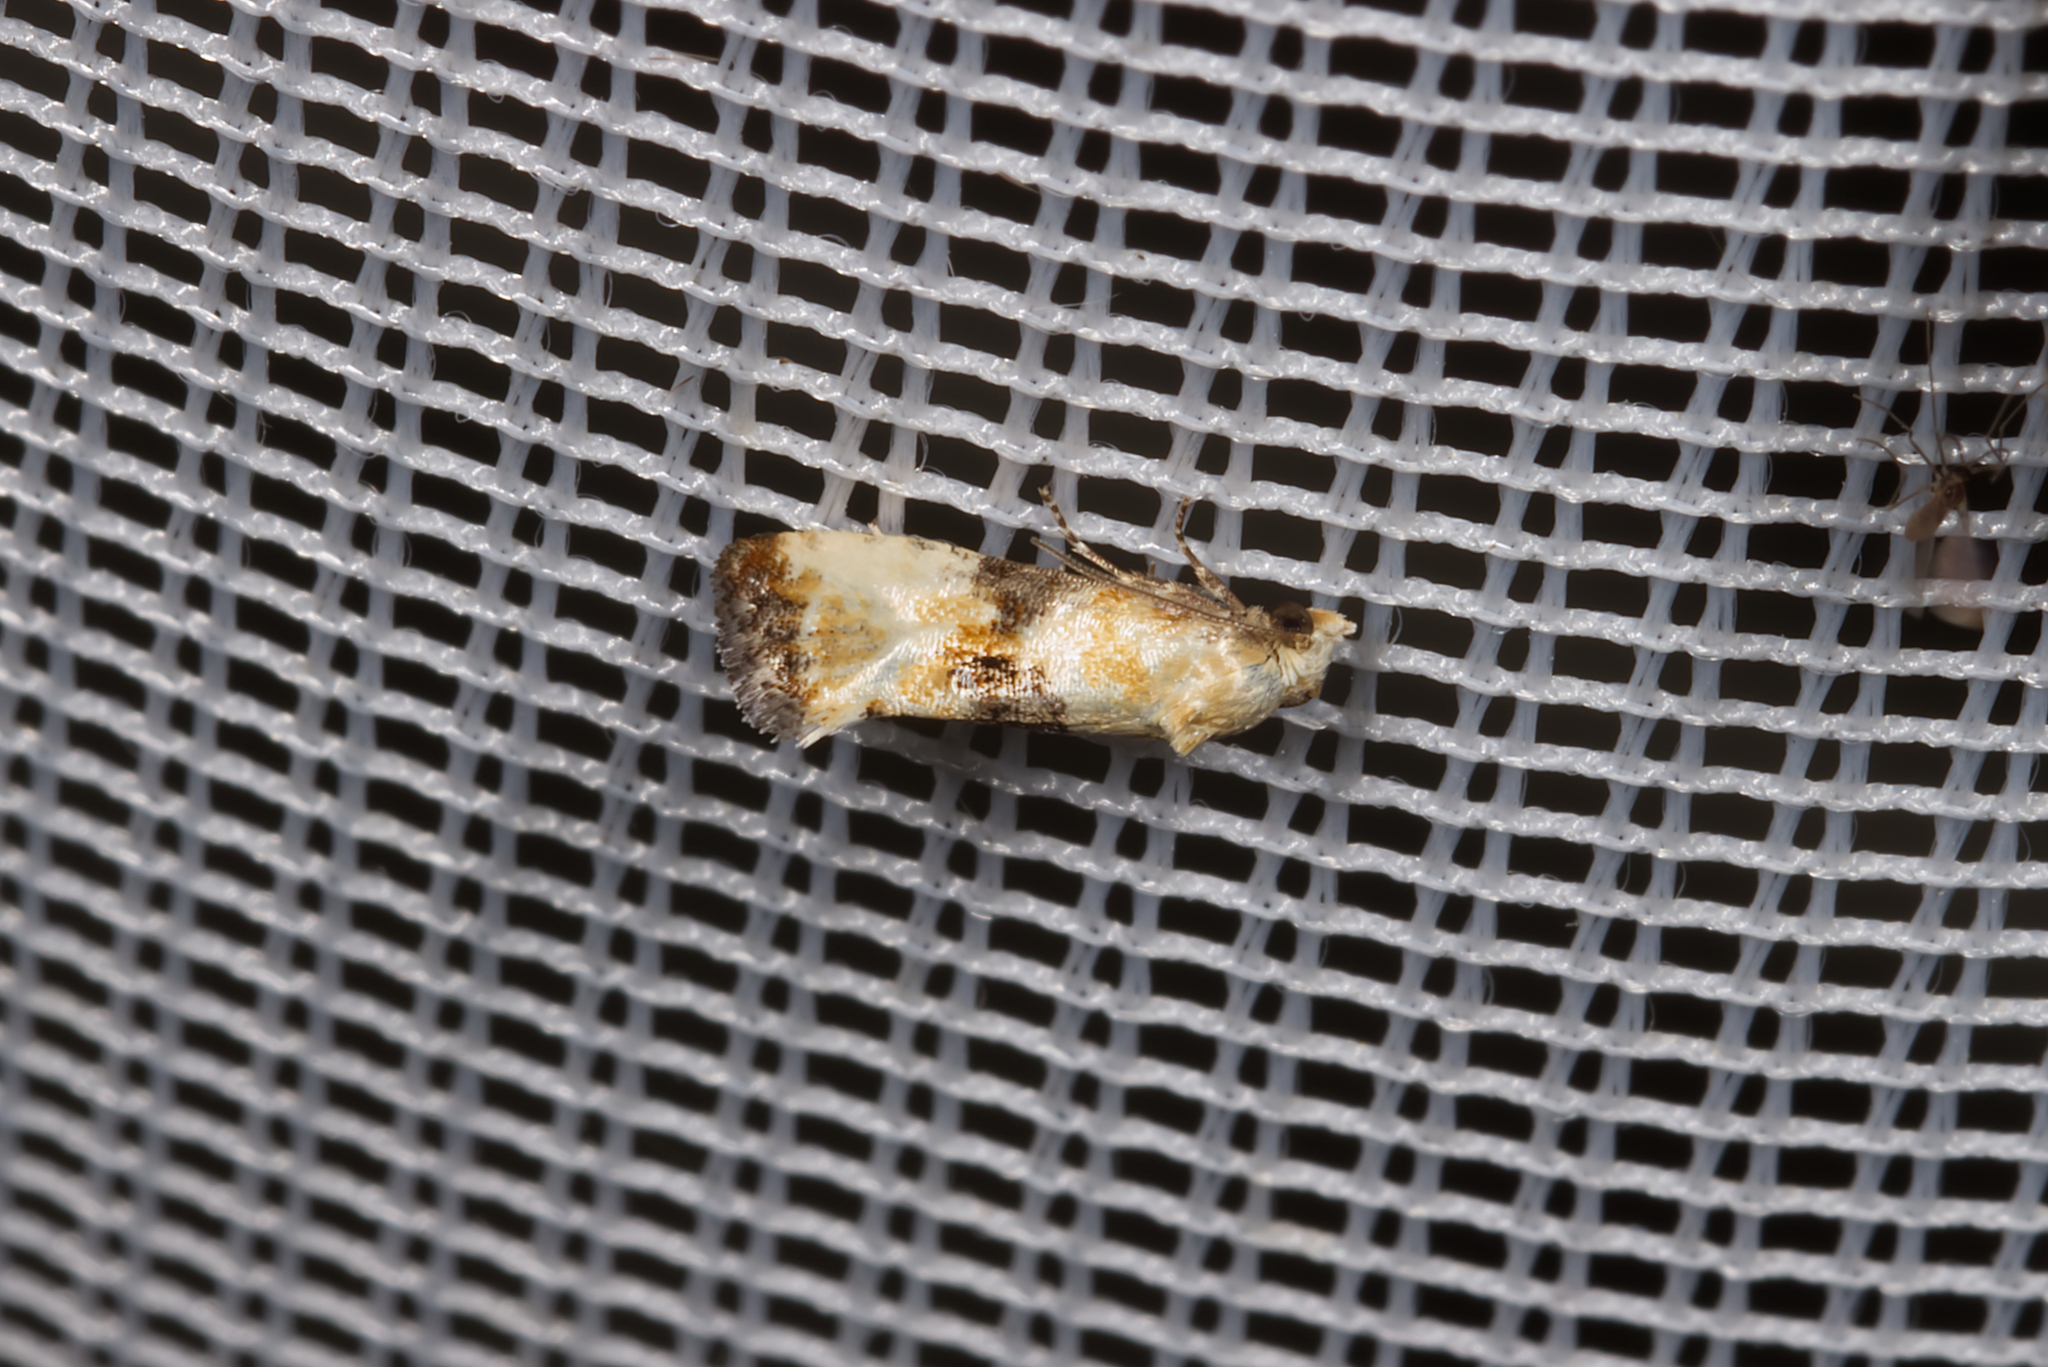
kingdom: Animalia
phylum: Arthropoda
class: Insecta
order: Lepidoptera
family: Tortricidae
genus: Eupoecilia
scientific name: Eupoecilia angustana
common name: Marbled conch
